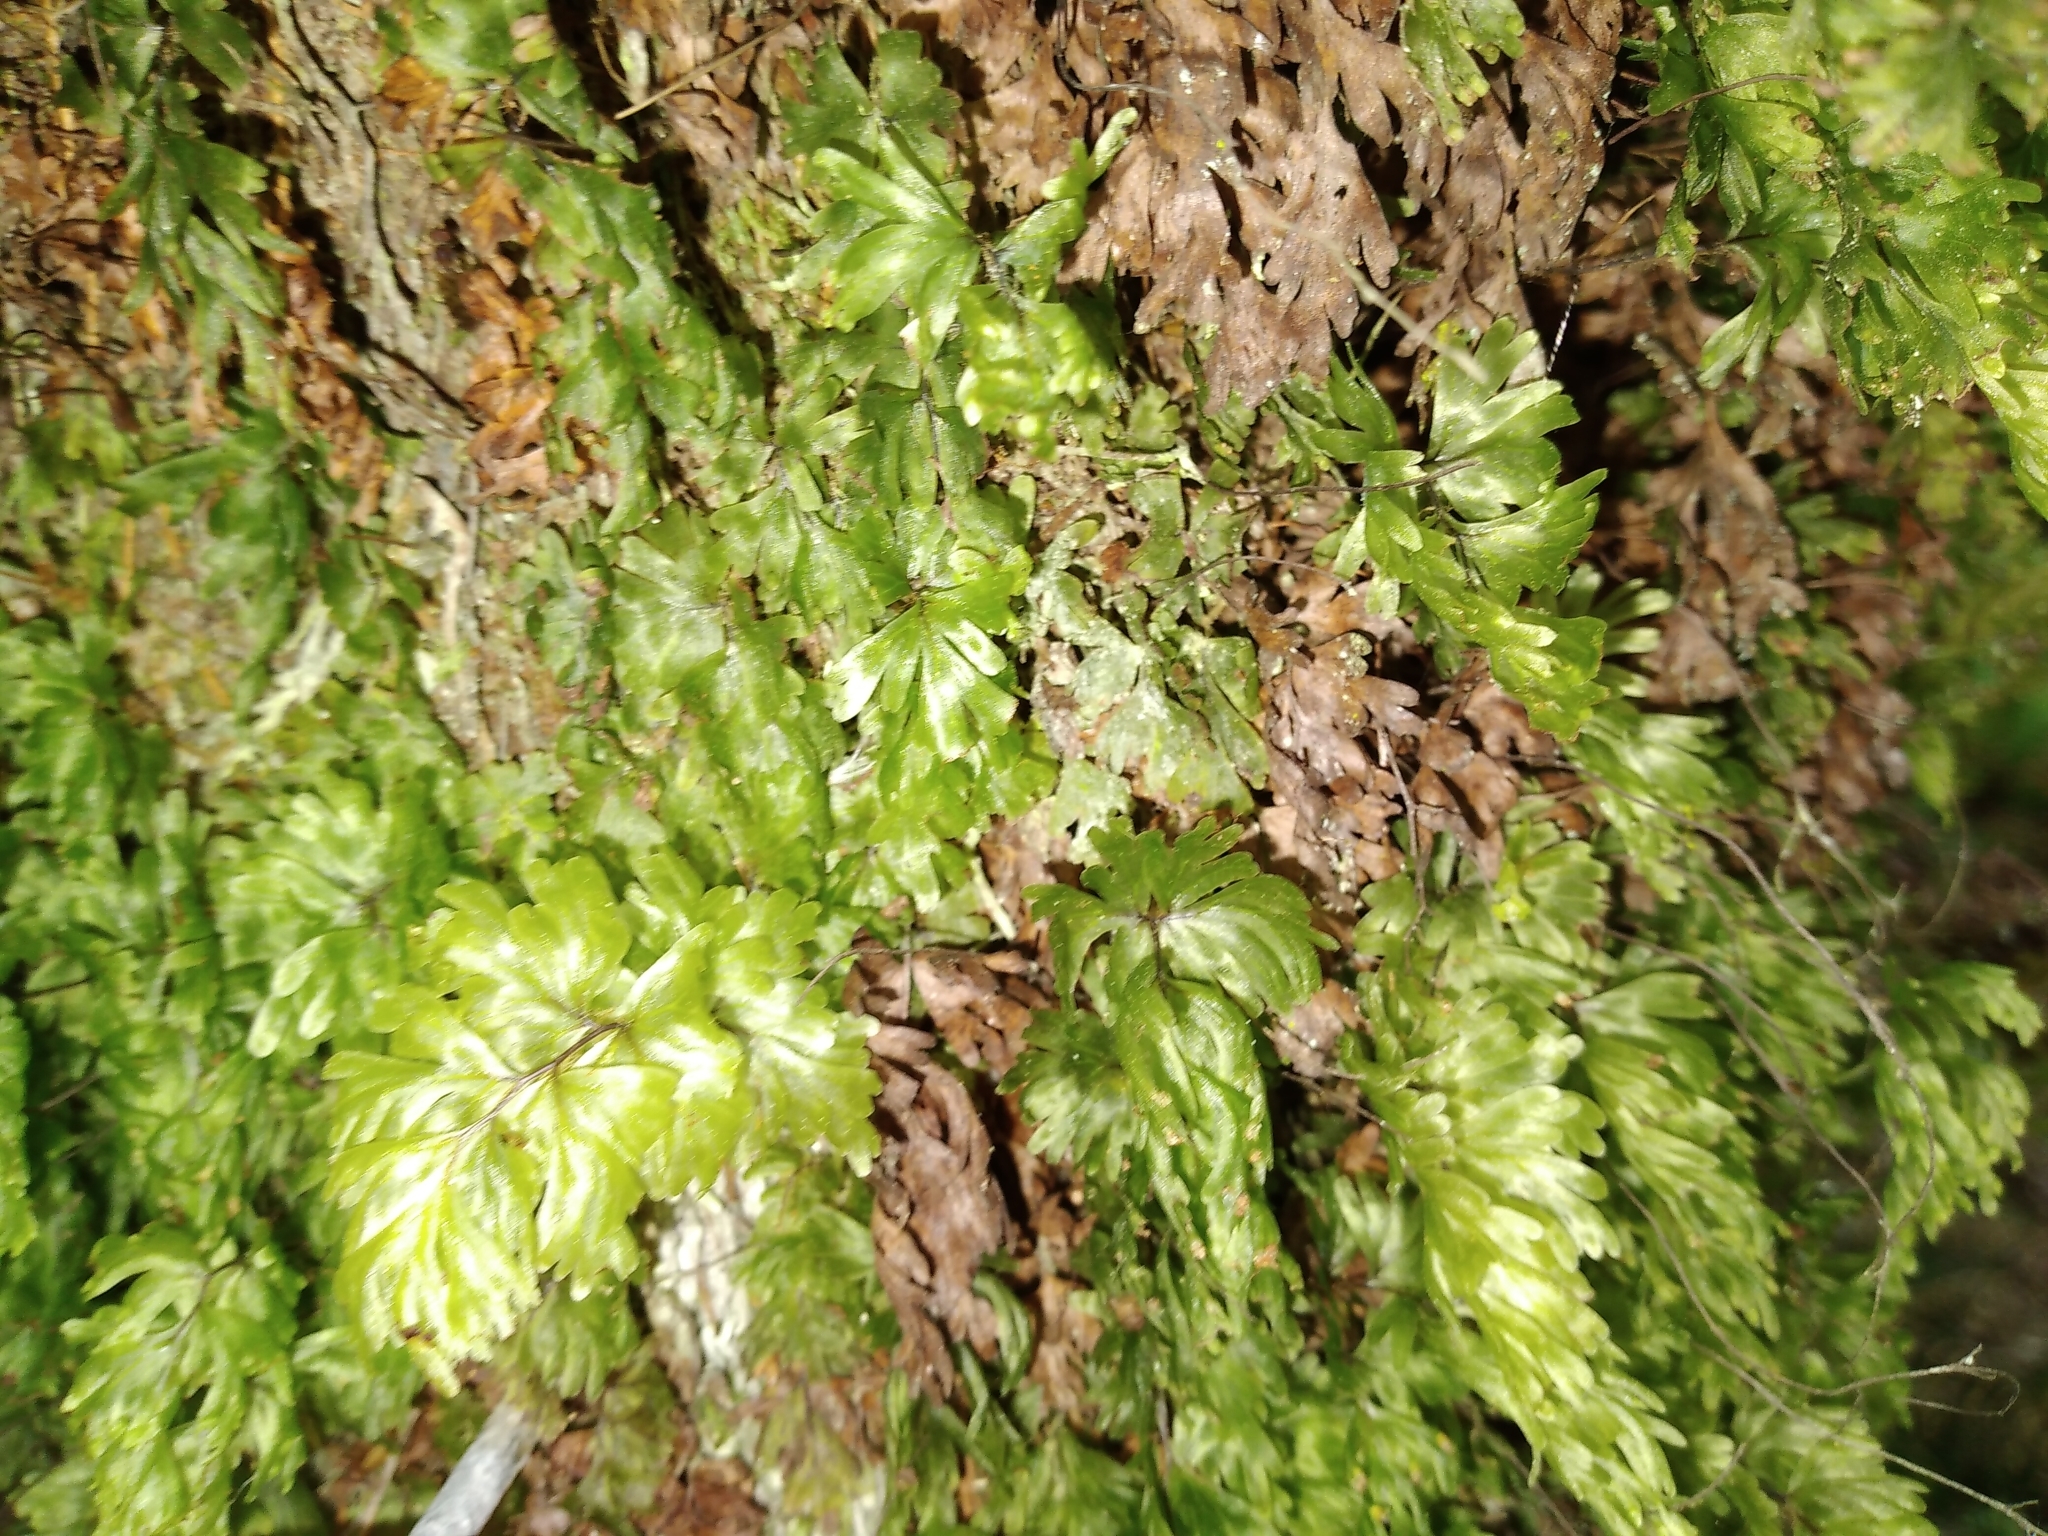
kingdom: Plantae
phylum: Tracheophyta
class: Polypodiopsida
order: Hymenophyllales
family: Hymenophyllaceae
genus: Hymenophyllum
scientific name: Hymenophyllum flabellatum
